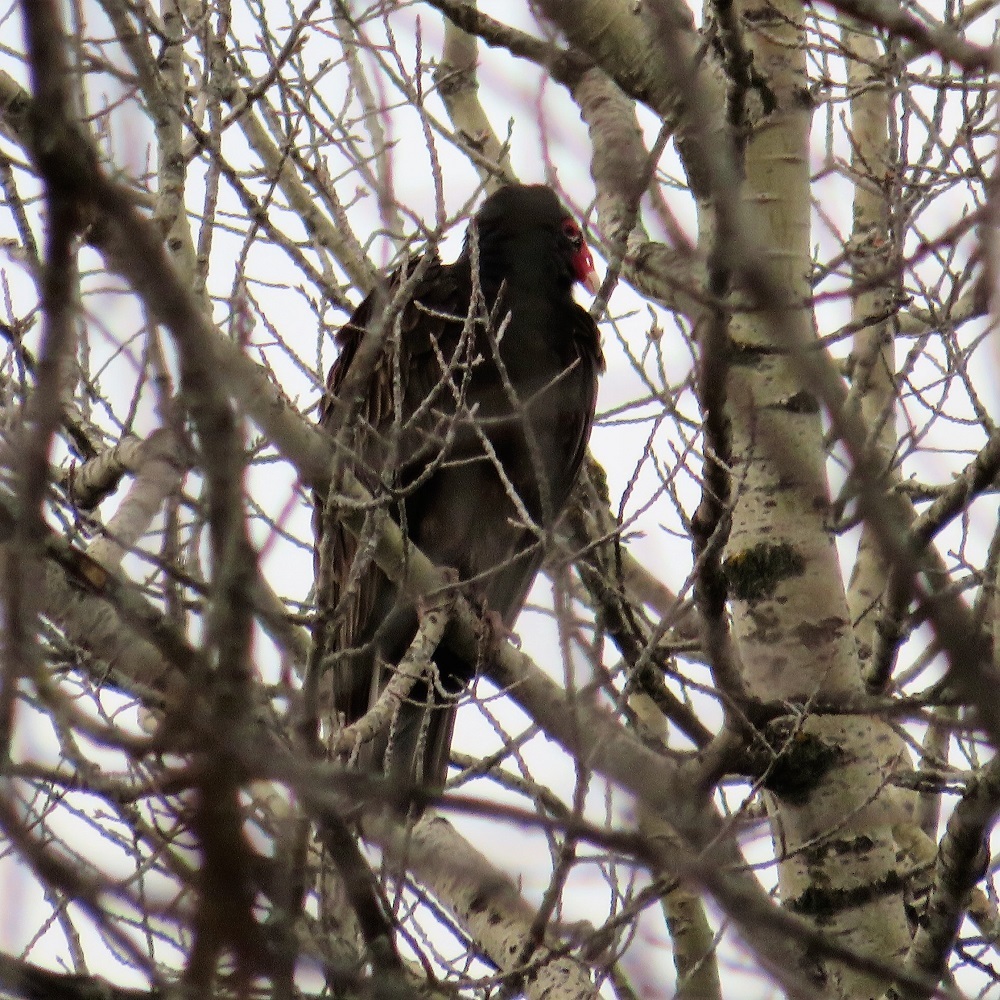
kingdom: Animalia
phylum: Chordata
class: Aves
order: Accipitriformes
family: Cathartidae
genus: Cathartes
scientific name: Cathartes aura
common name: Turkey vulture
